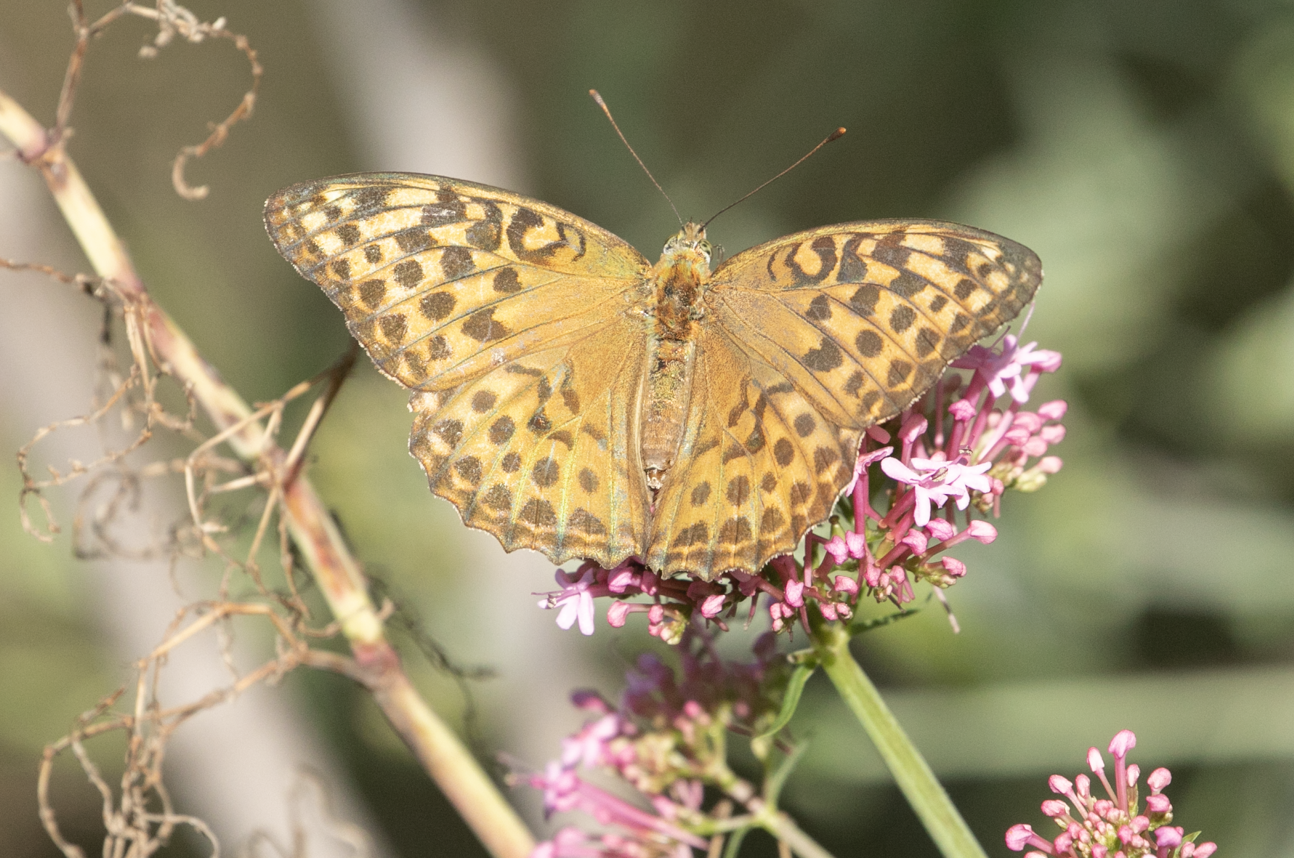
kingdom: Animalia
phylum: Arthropoda
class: Insecta
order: Lepidoptera
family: Nymphalidae
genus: Argynnis
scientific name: Argynnis paphia
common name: Silver-washed fritillary
